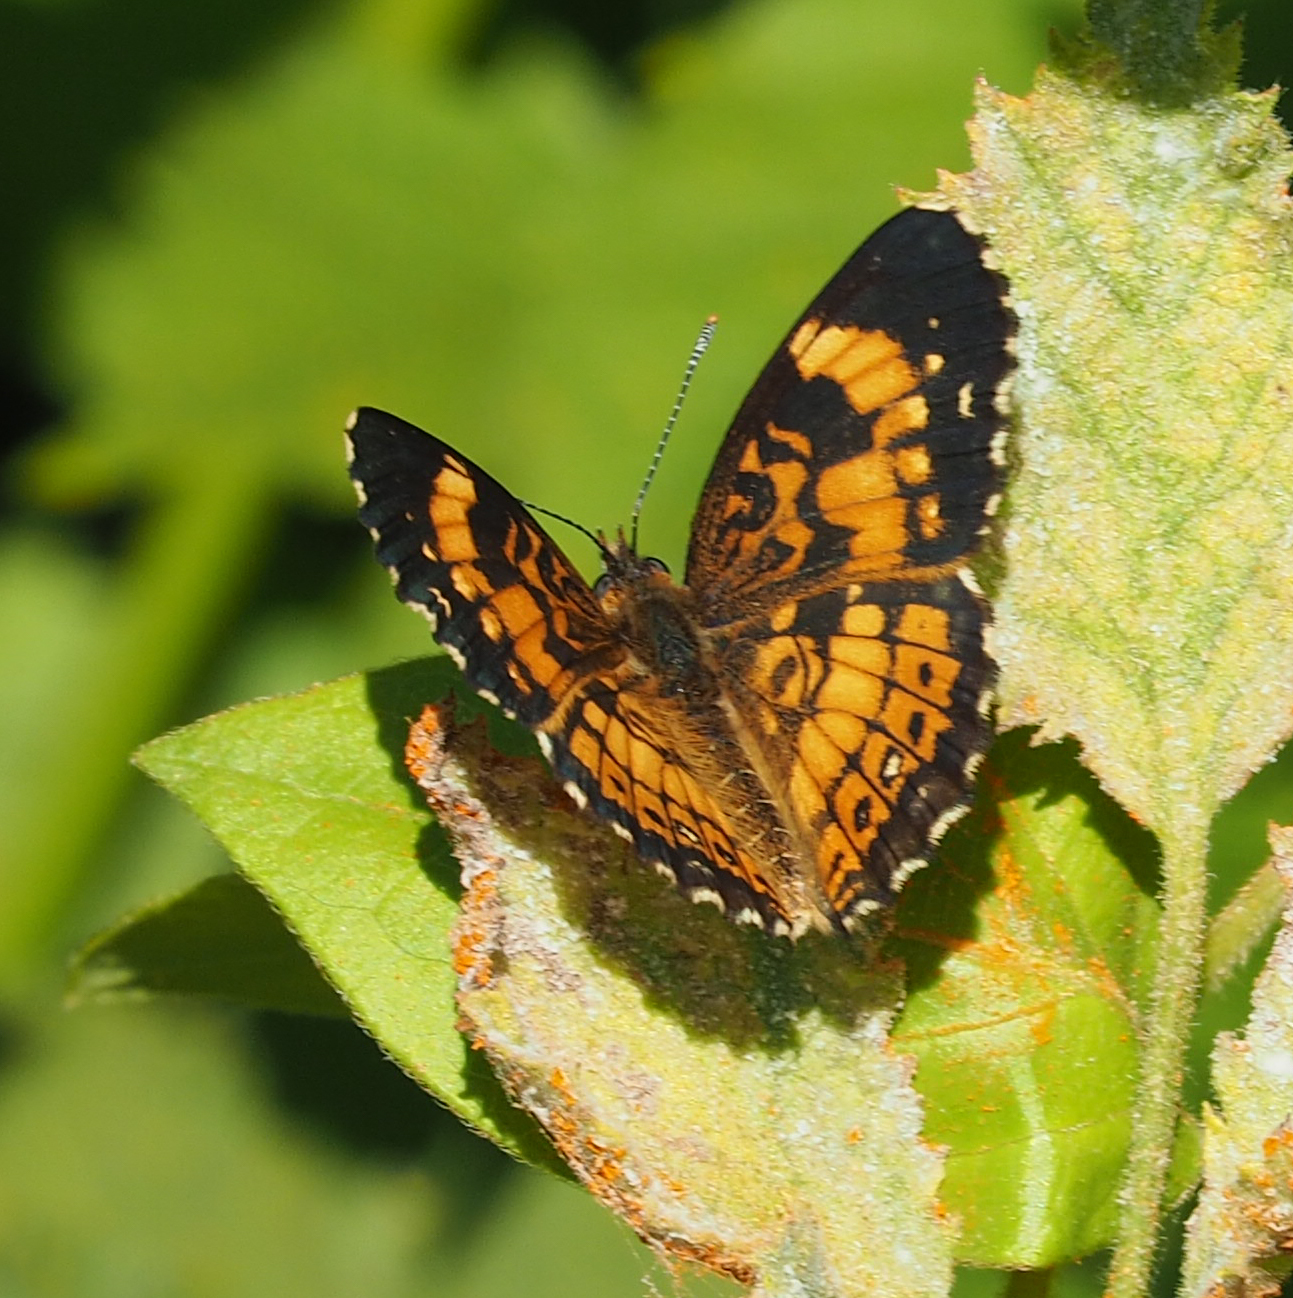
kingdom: Animalia
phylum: Arthropoda
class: Insecta
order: Lepidoptera
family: Nymphalidae
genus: Chlosyne
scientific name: Chlosyne nycteis
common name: Silvery checkerspot
